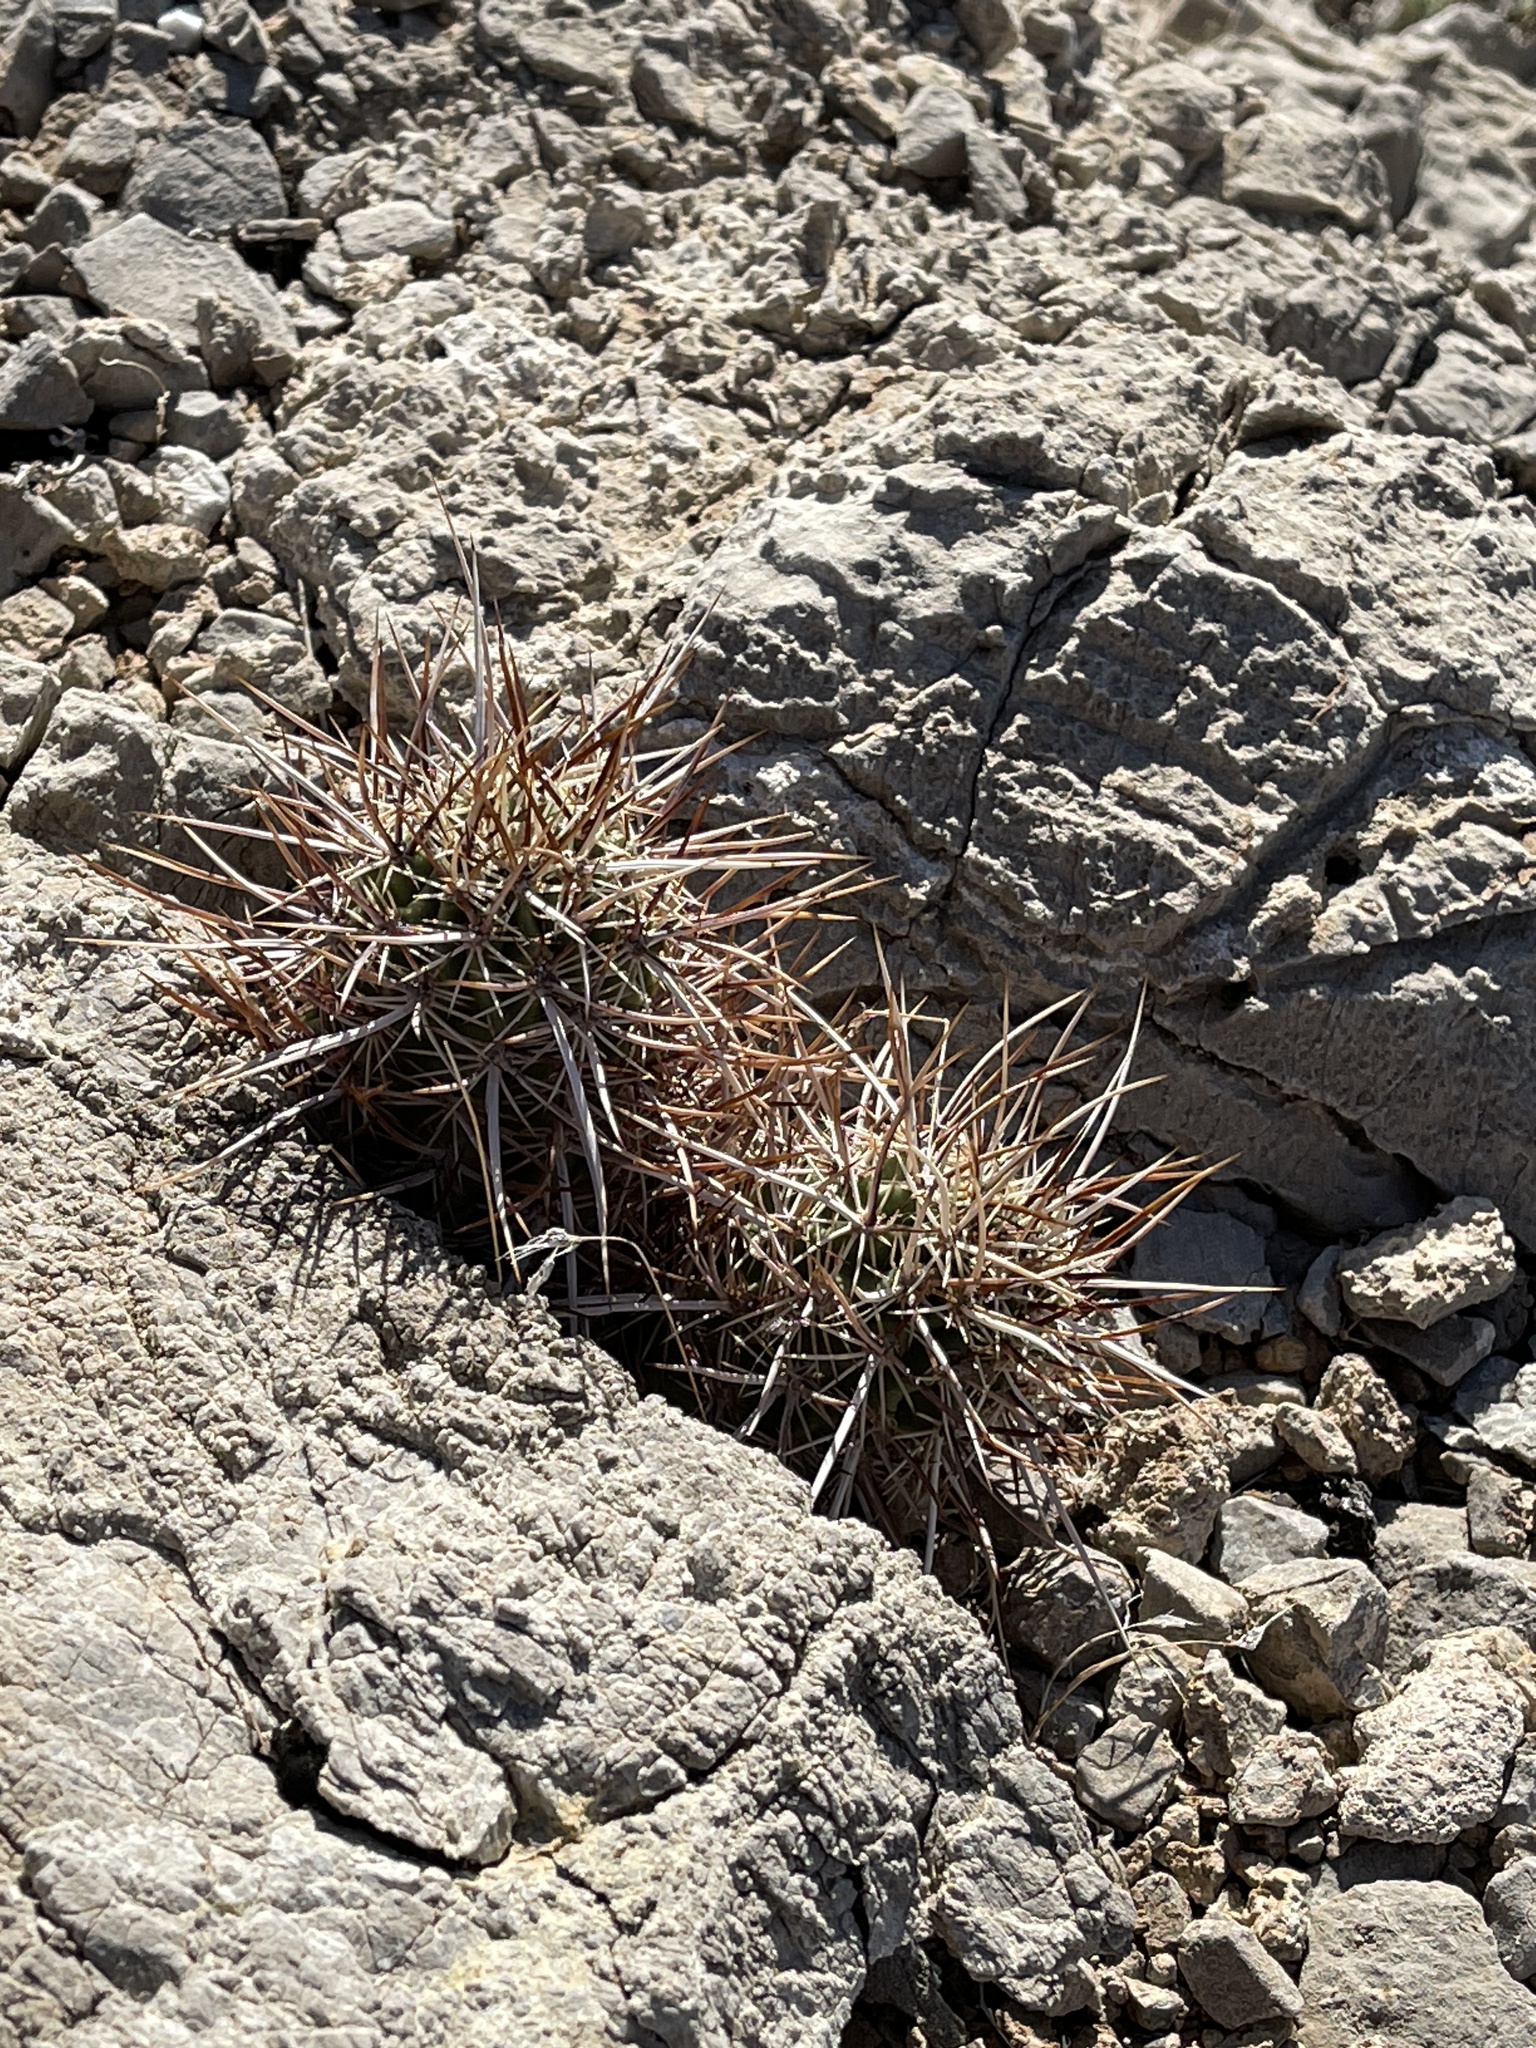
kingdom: Plantae
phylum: Tracheophyta
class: Magnoliopsida
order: Caryophyllales
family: Cactaceae
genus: Echinocereus
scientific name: Echinocereus engelmannii
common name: Engelmann's hedgehog cactus
